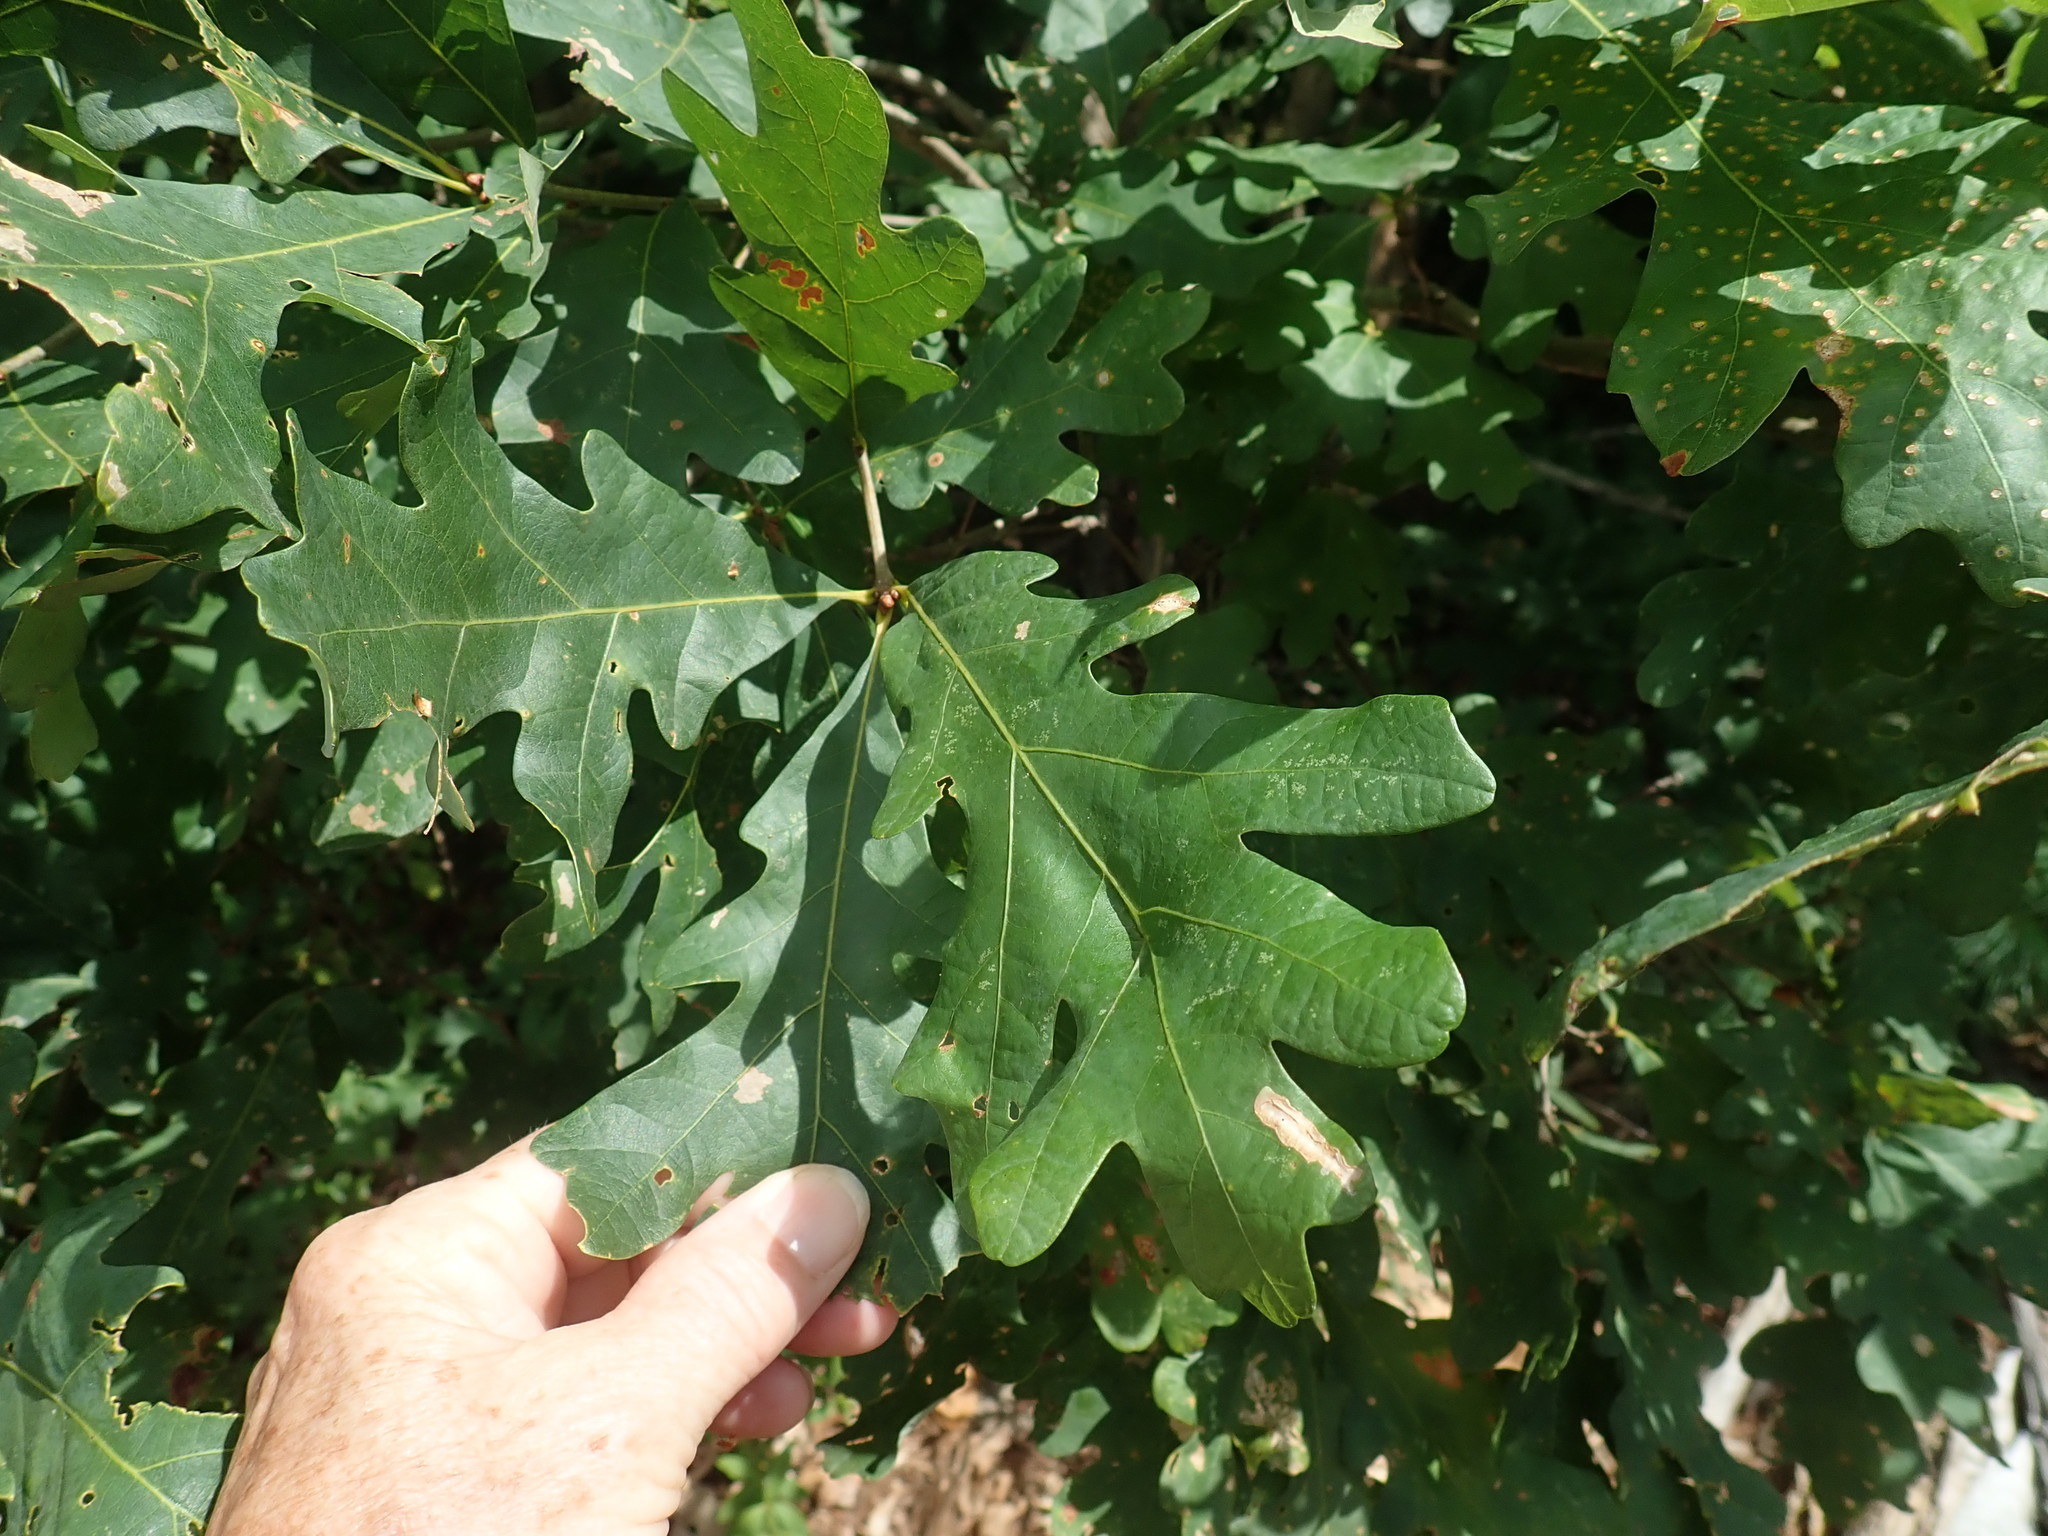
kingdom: Plantae
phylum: Tracheophyta
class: Magnoliopsida
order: Fagales
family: Fagaceae
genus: Quercus
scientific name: Quercus alba
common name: White oak
